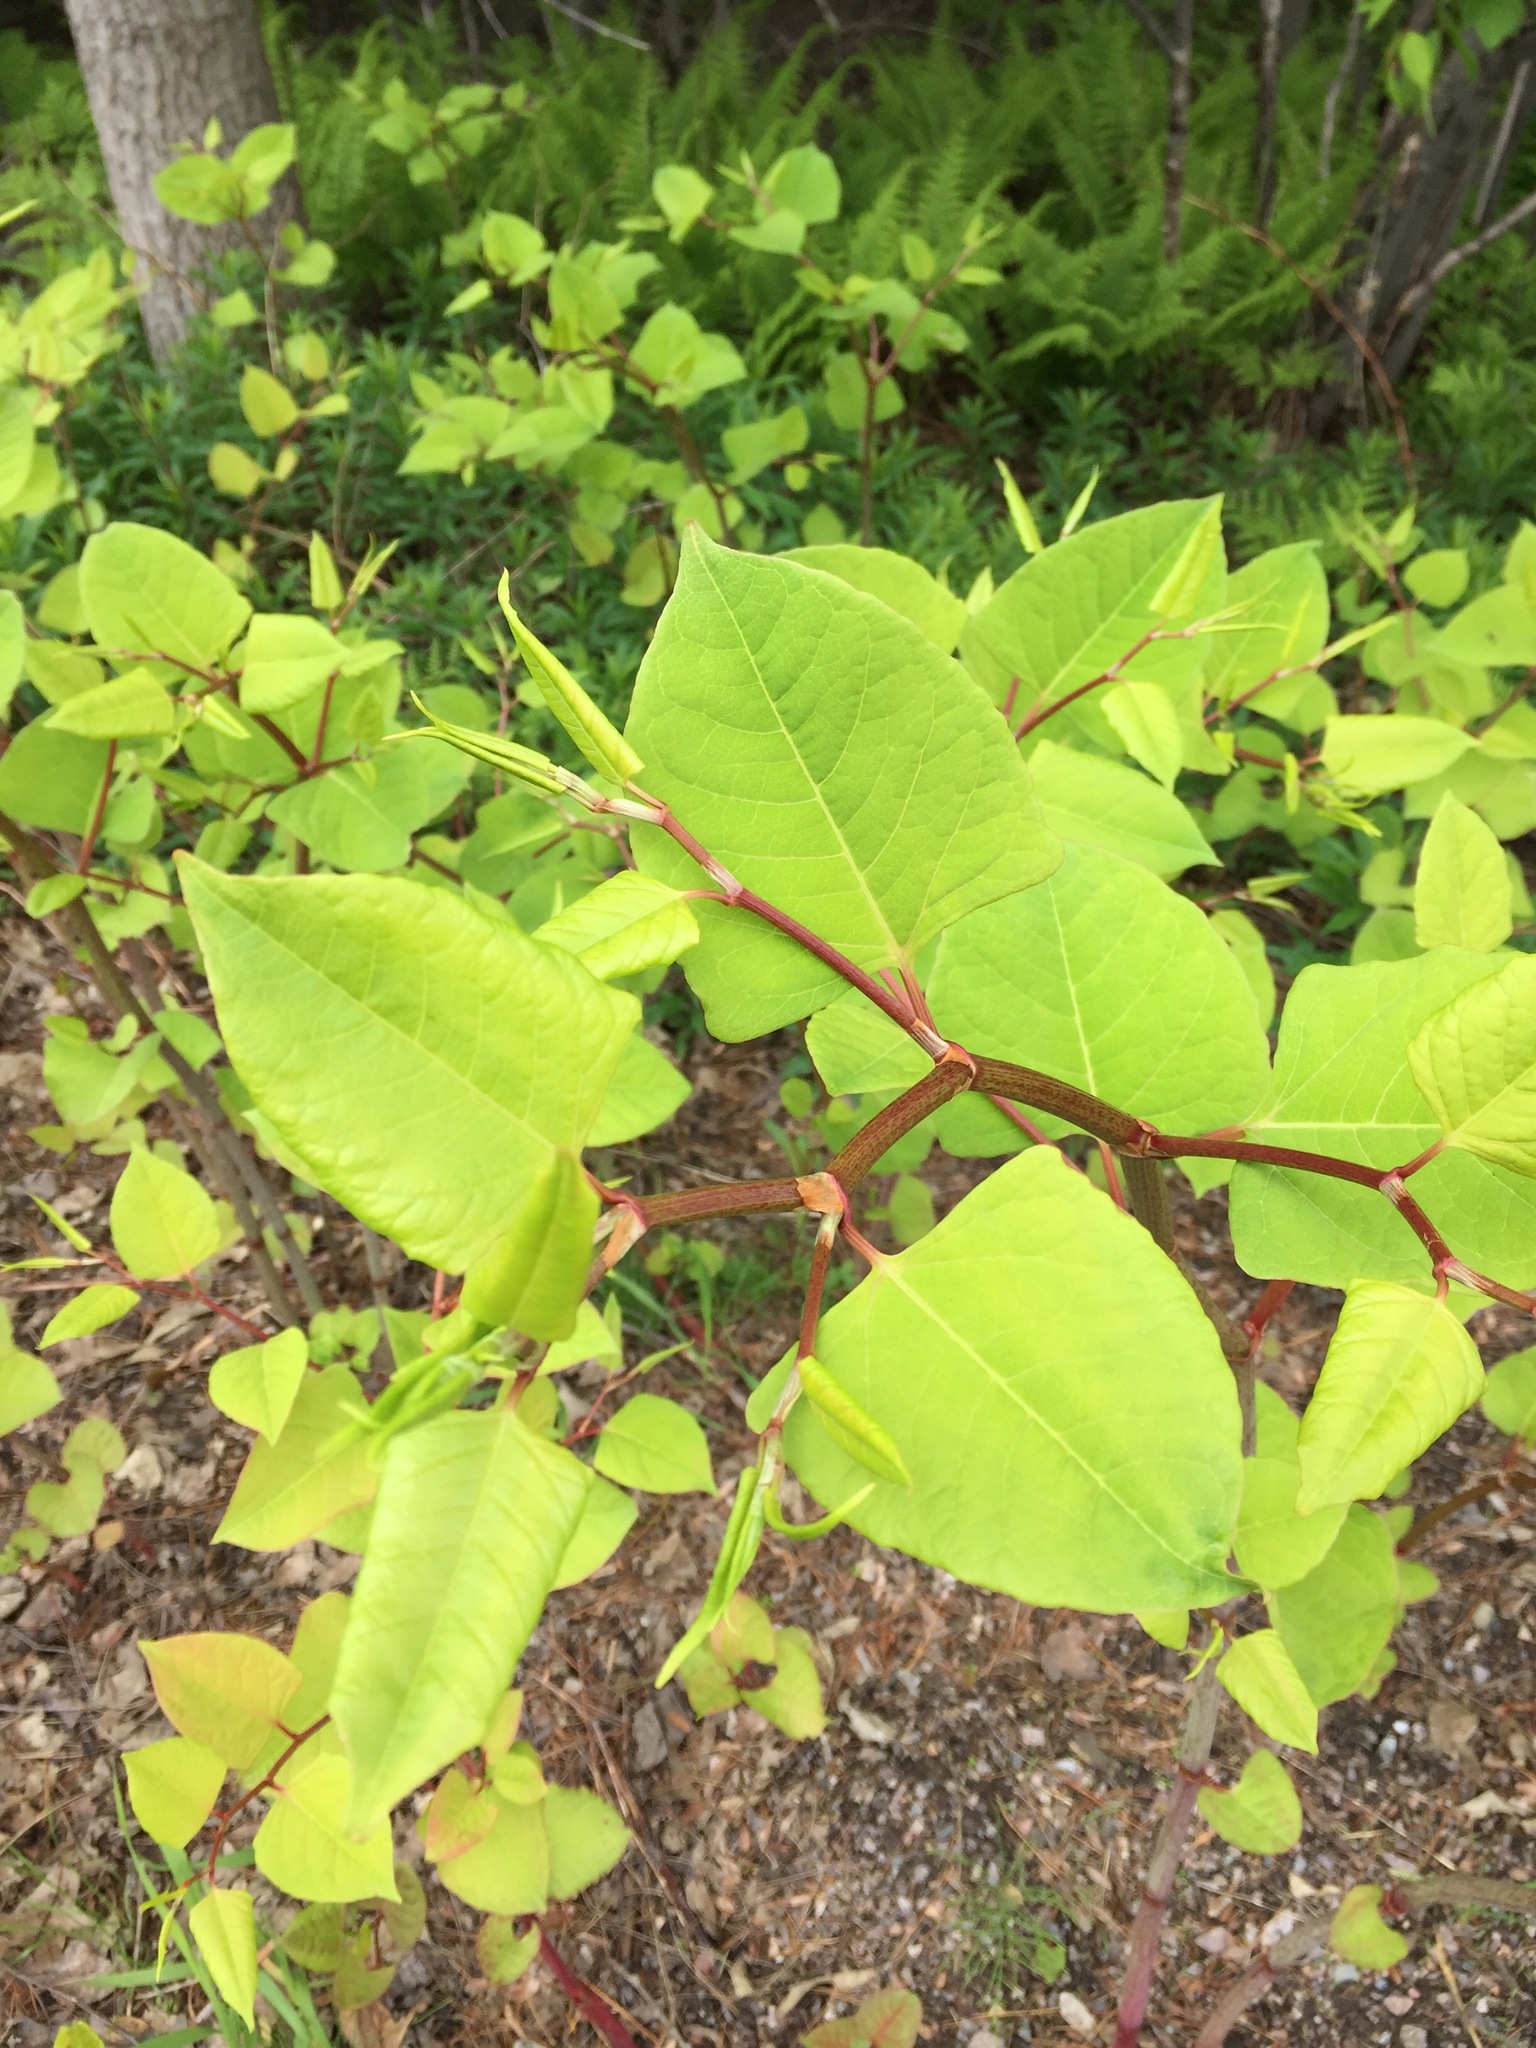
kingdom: Plantae
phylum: Tracheophyta
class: Magnoliopsida
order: Caryophyllales
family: Polygonaceae
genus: Reynoutria
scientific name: Reynoutria japonica
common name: Japanese knotweed
